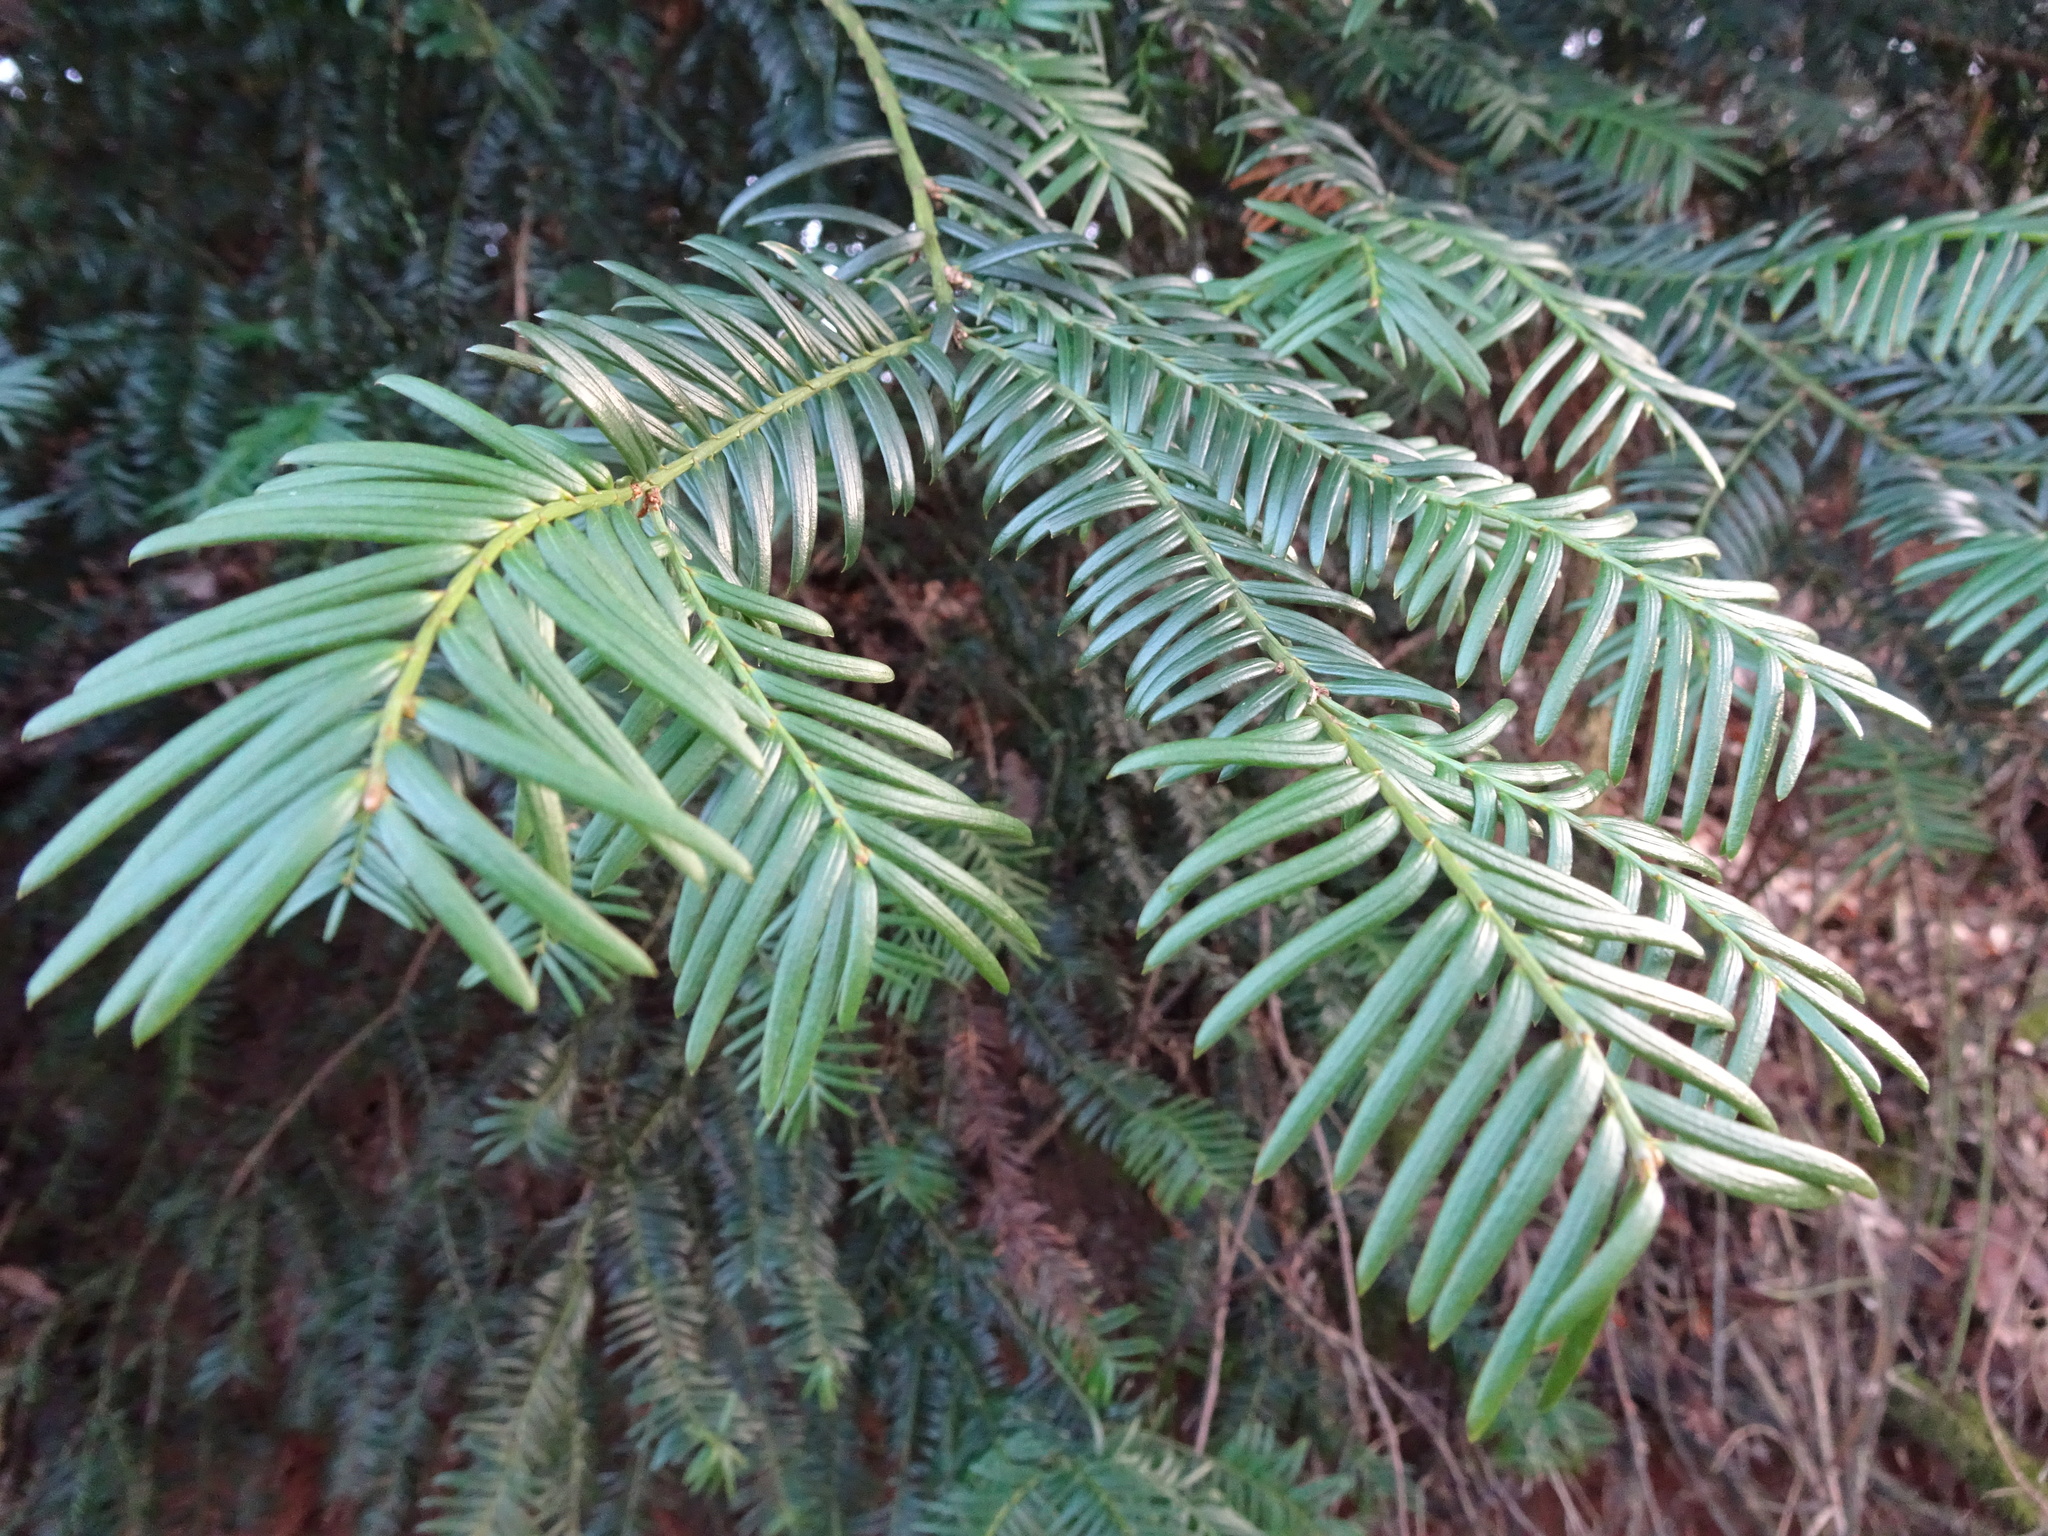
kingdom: Plantae
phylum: Tracheophyta
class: Pinopsida
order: Pinales
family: Taxaceae
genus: Taxus
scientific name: Taxus baccata
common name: Yew
